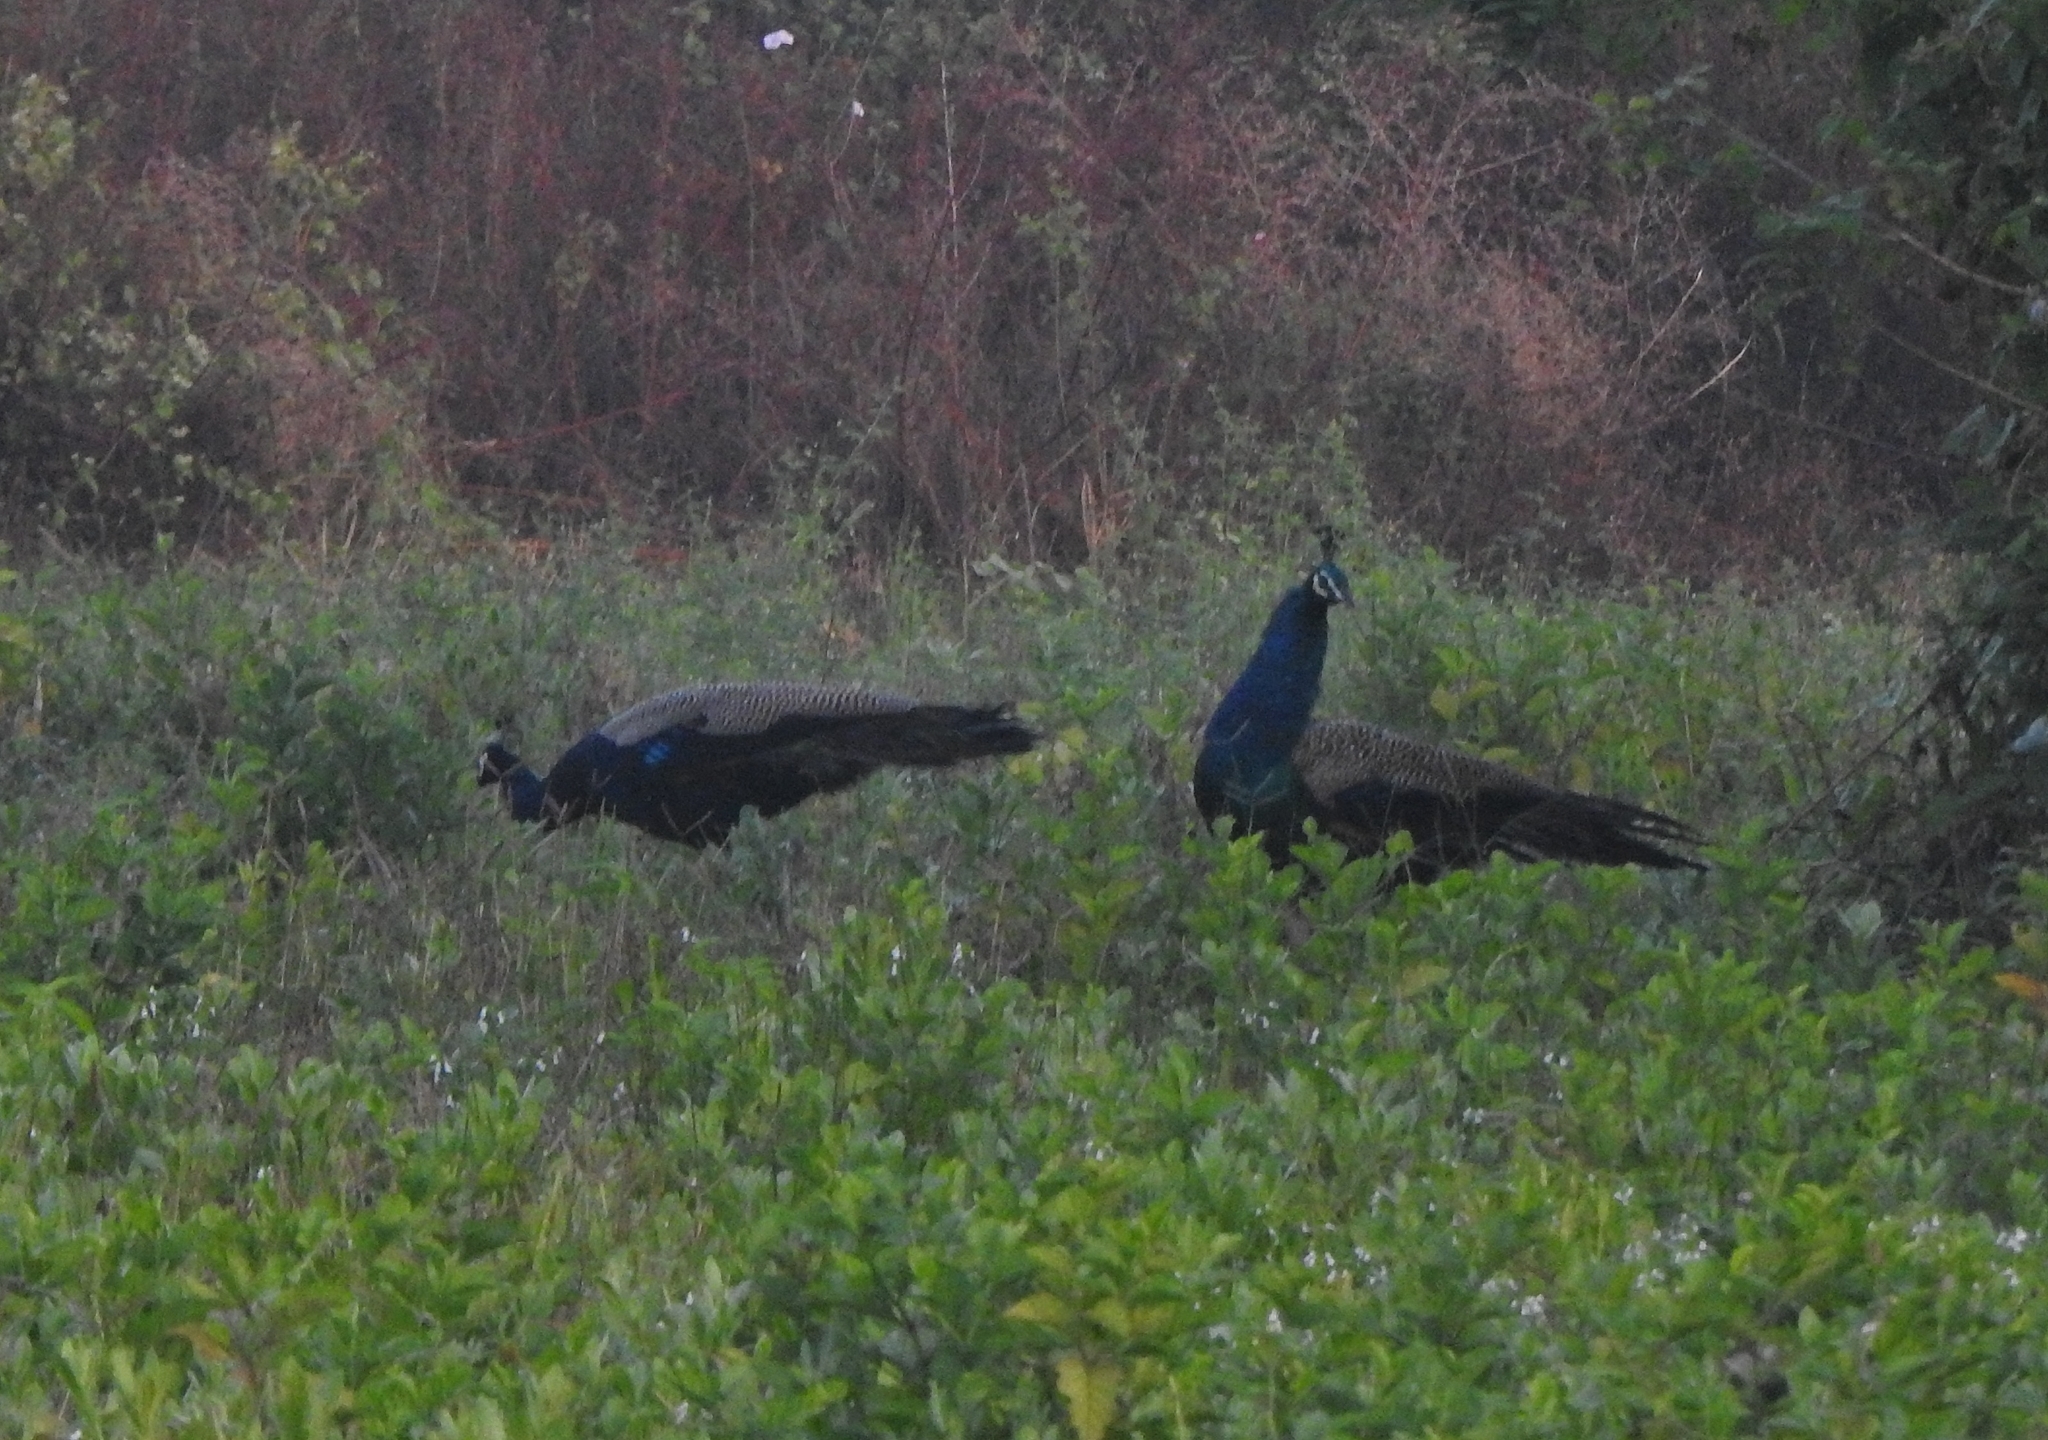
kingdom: Animalia
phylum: Chordata
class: Aves
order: Galliformes
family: Phasianidae
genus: Pavo
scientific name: Pavo cristatus
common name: Indian peafowl
